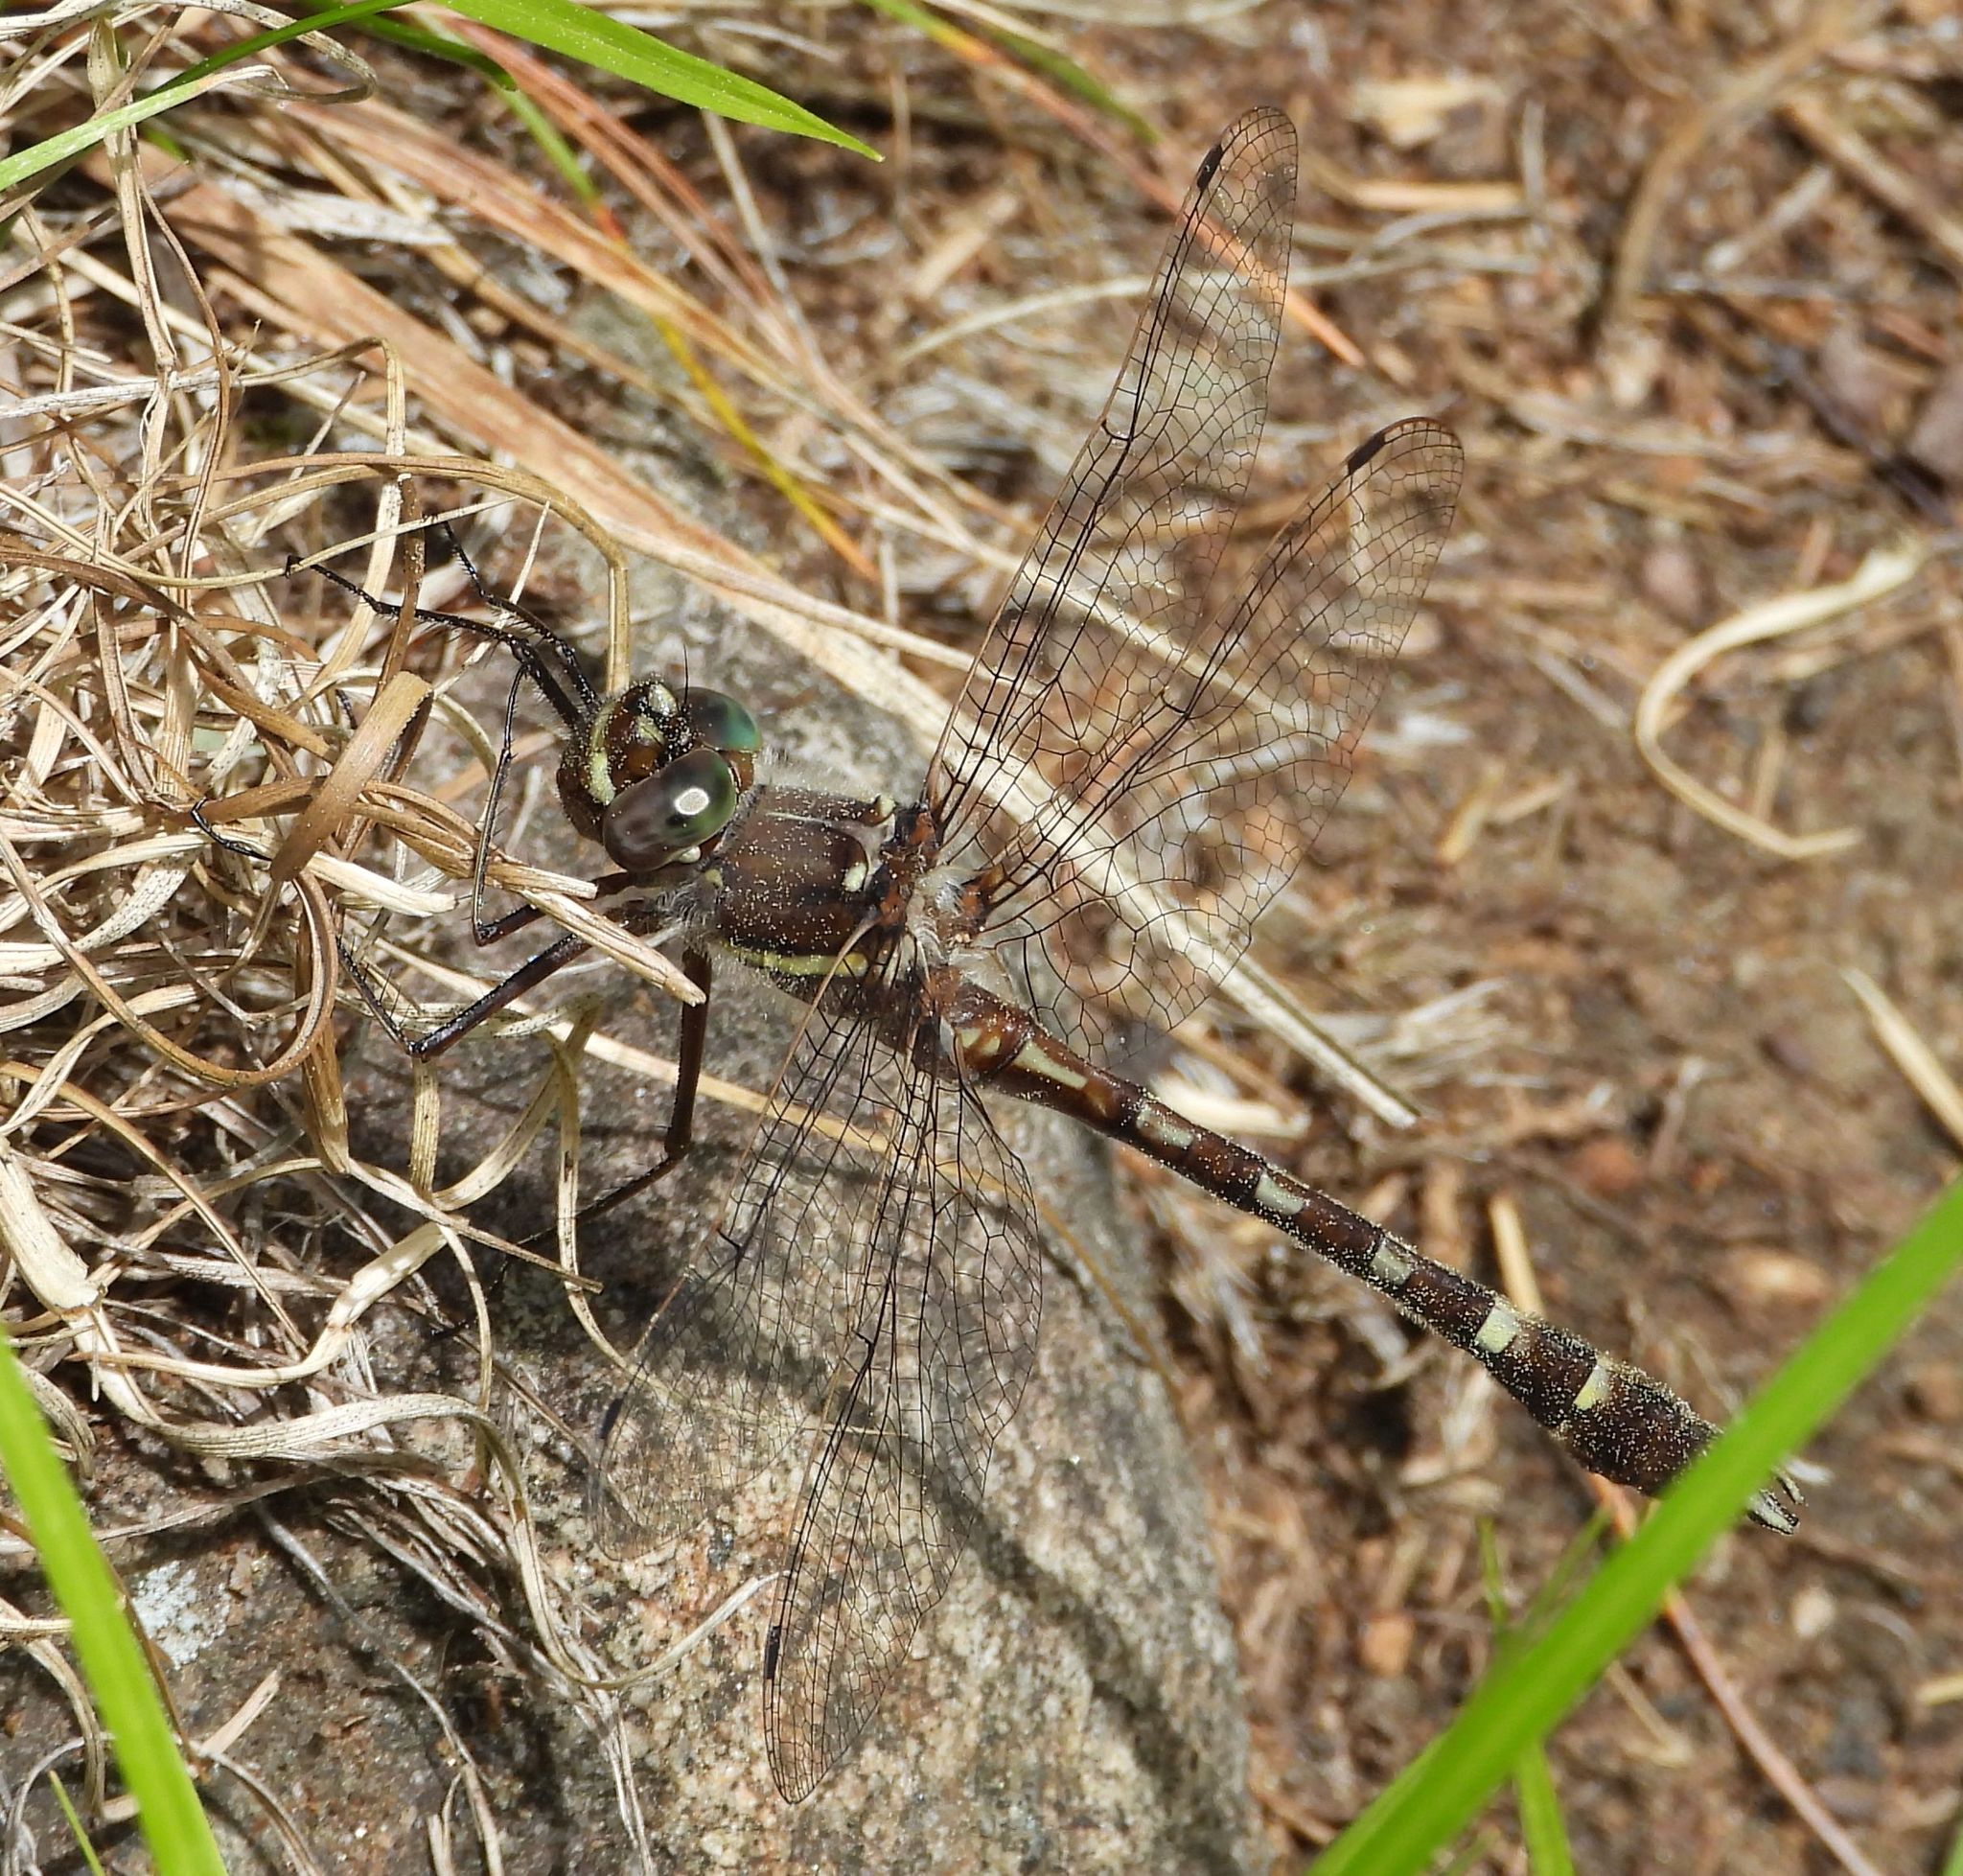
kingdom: Animalia
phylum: Arthropoda
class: Insecta
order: Odonata
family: Macromiidae
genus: Didymops
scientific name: Didymops transversa
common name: Stream cruiser
